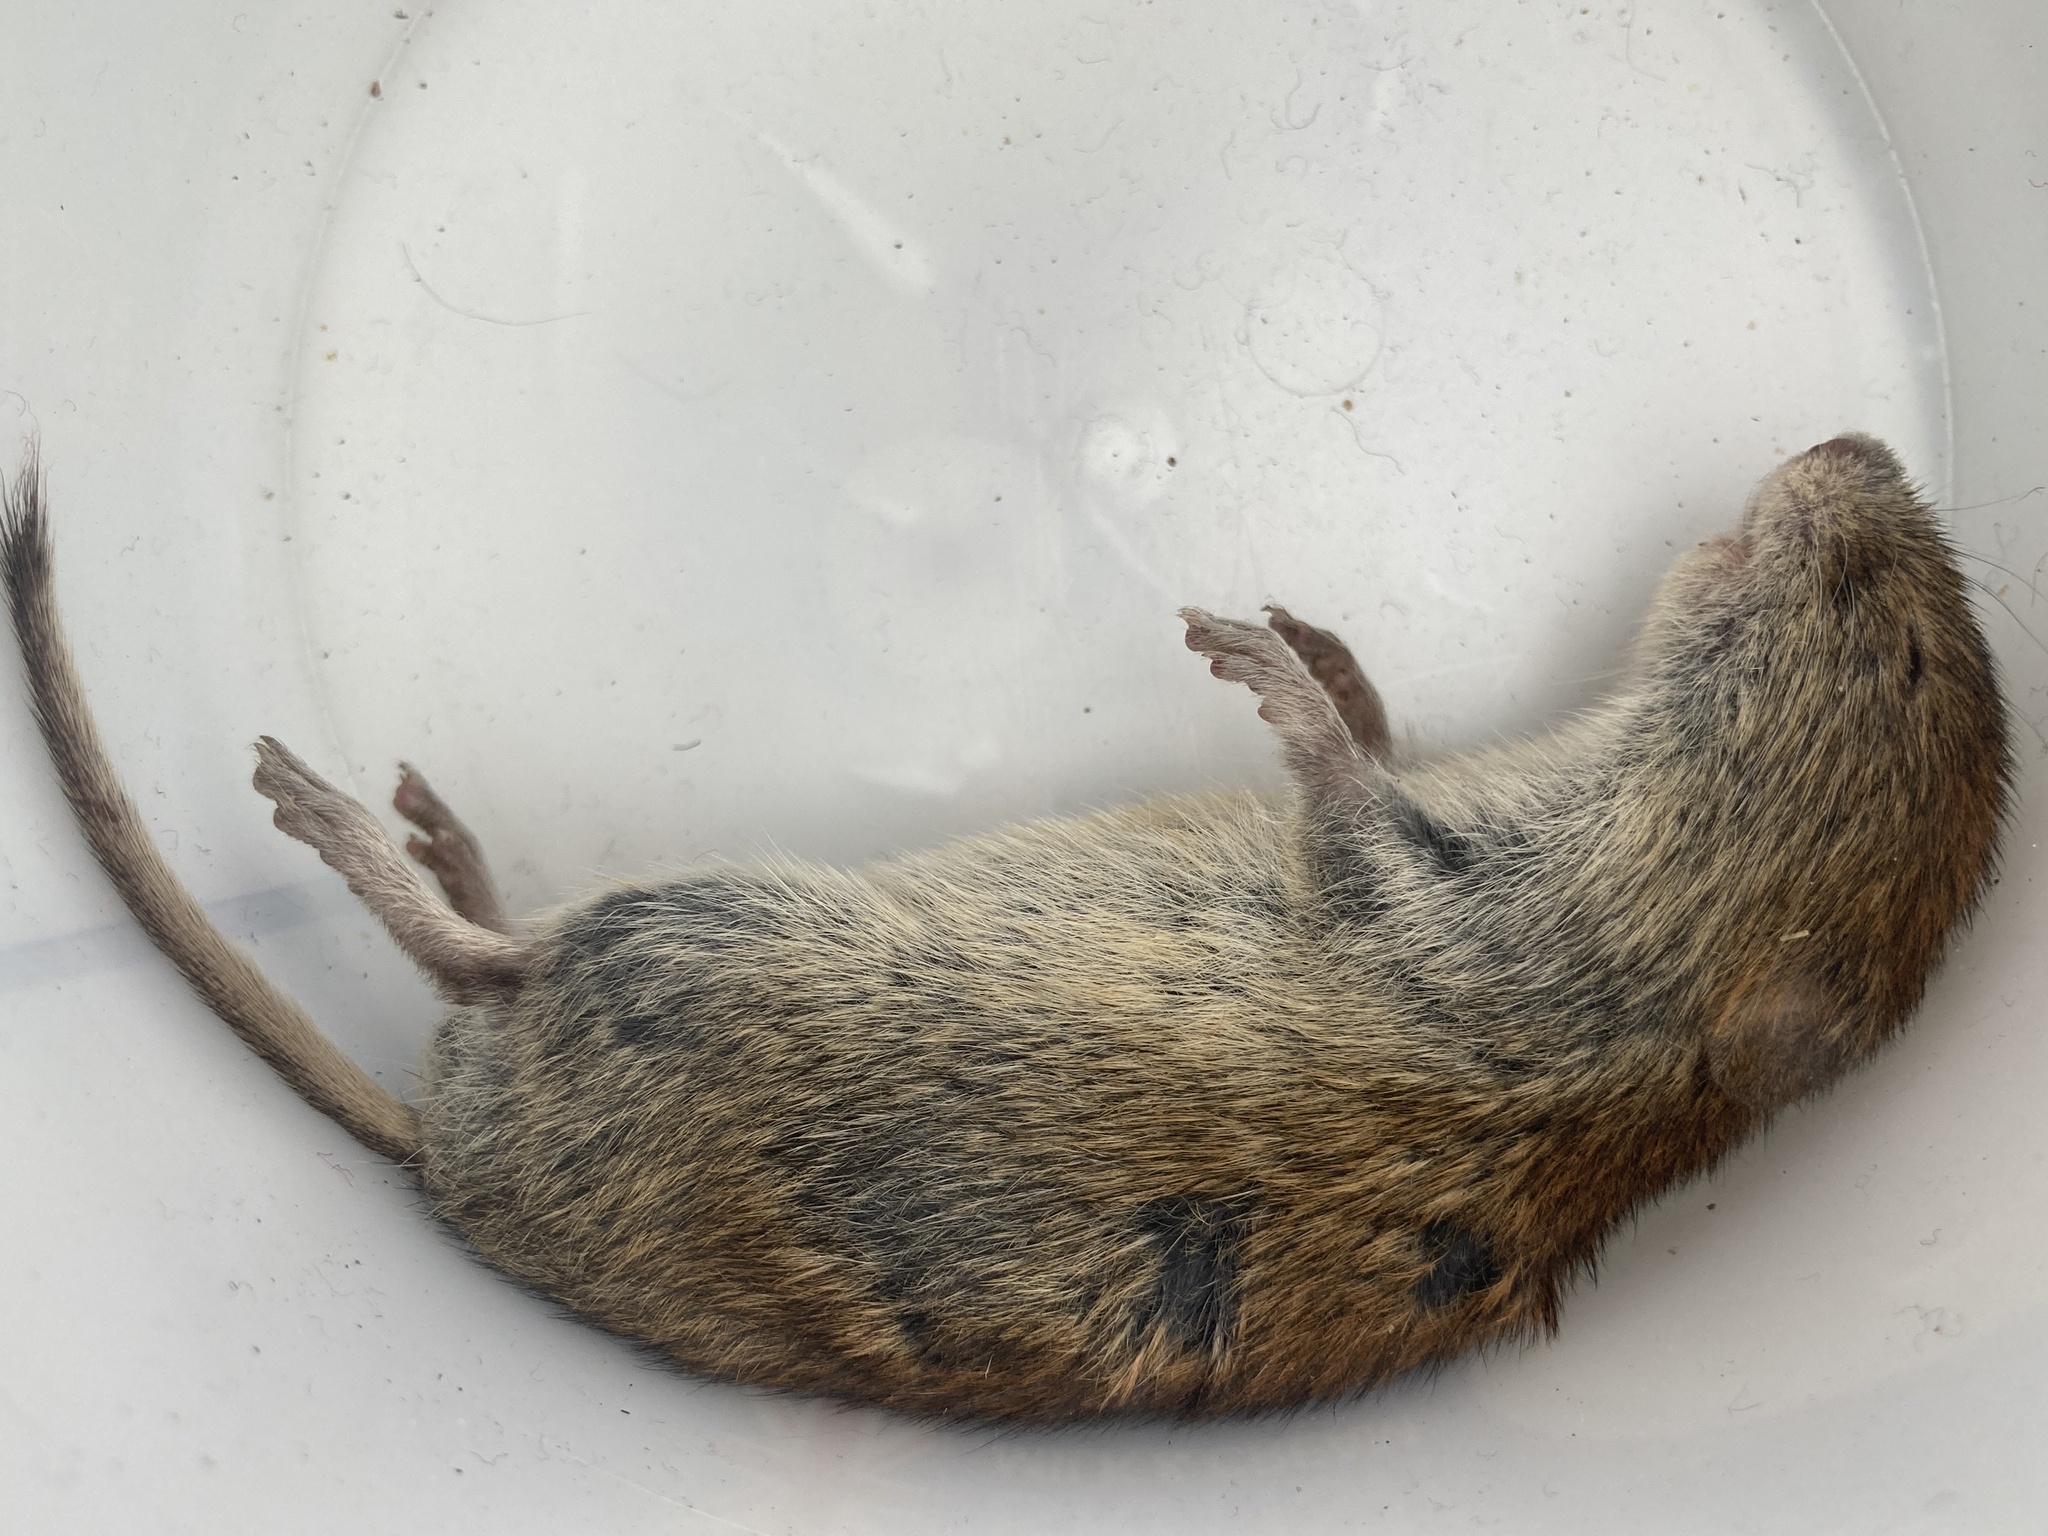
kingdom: Animalia
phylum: Chordata
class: Mammalia
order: Rodentia
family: Cricetidae
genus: Myodes
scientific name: Myodes glareolus
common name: Bank vole
